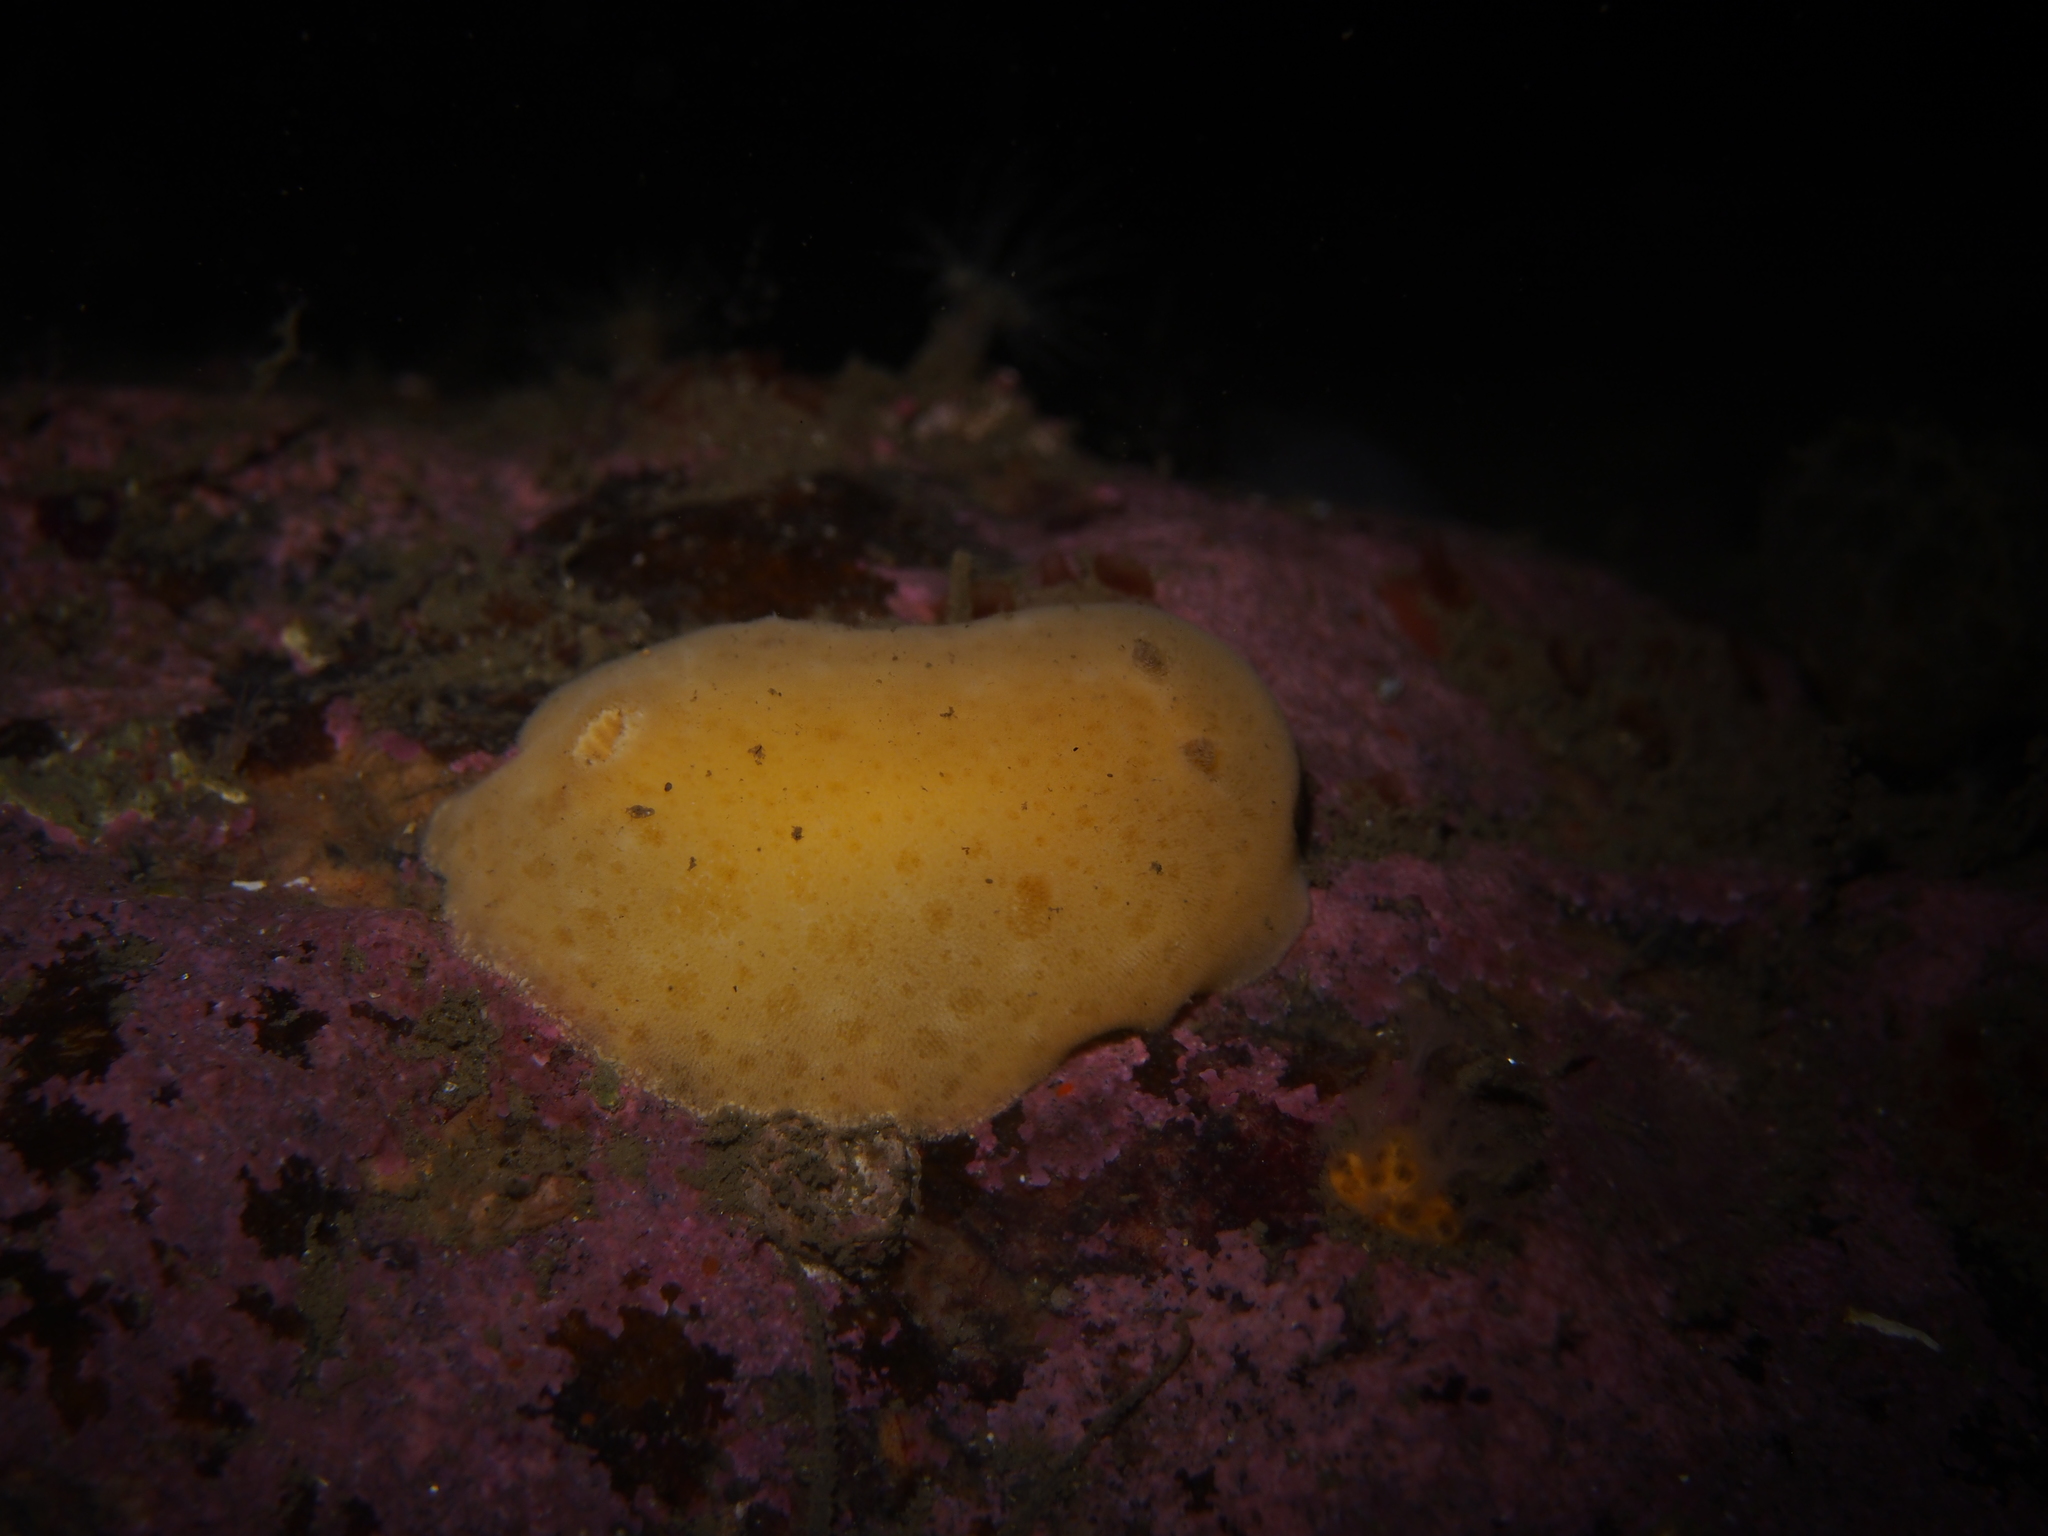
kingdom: Animalia
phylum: Mollusca
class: Gastropoda
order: Nudibranchia
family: Discodorididae
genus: Jorunna
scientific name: Jorunna tomentosa
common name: Grey sea slug
